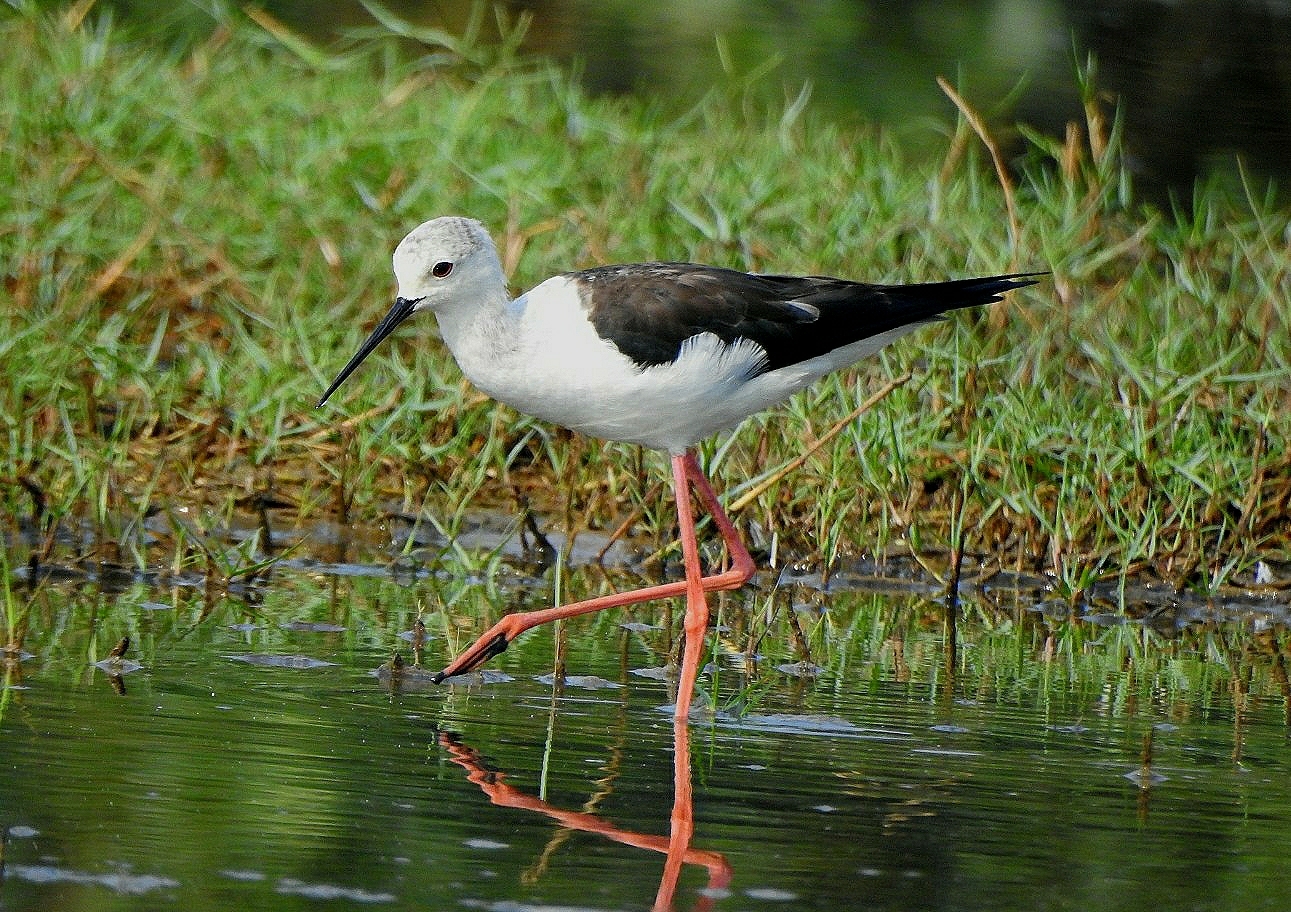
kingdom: Animalia
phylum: Chordata
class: Aves
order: Charadriiformes
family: Recurvirostridae
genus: Himantopus
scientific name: Himantopus himantopus
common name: Black-winged stilt
